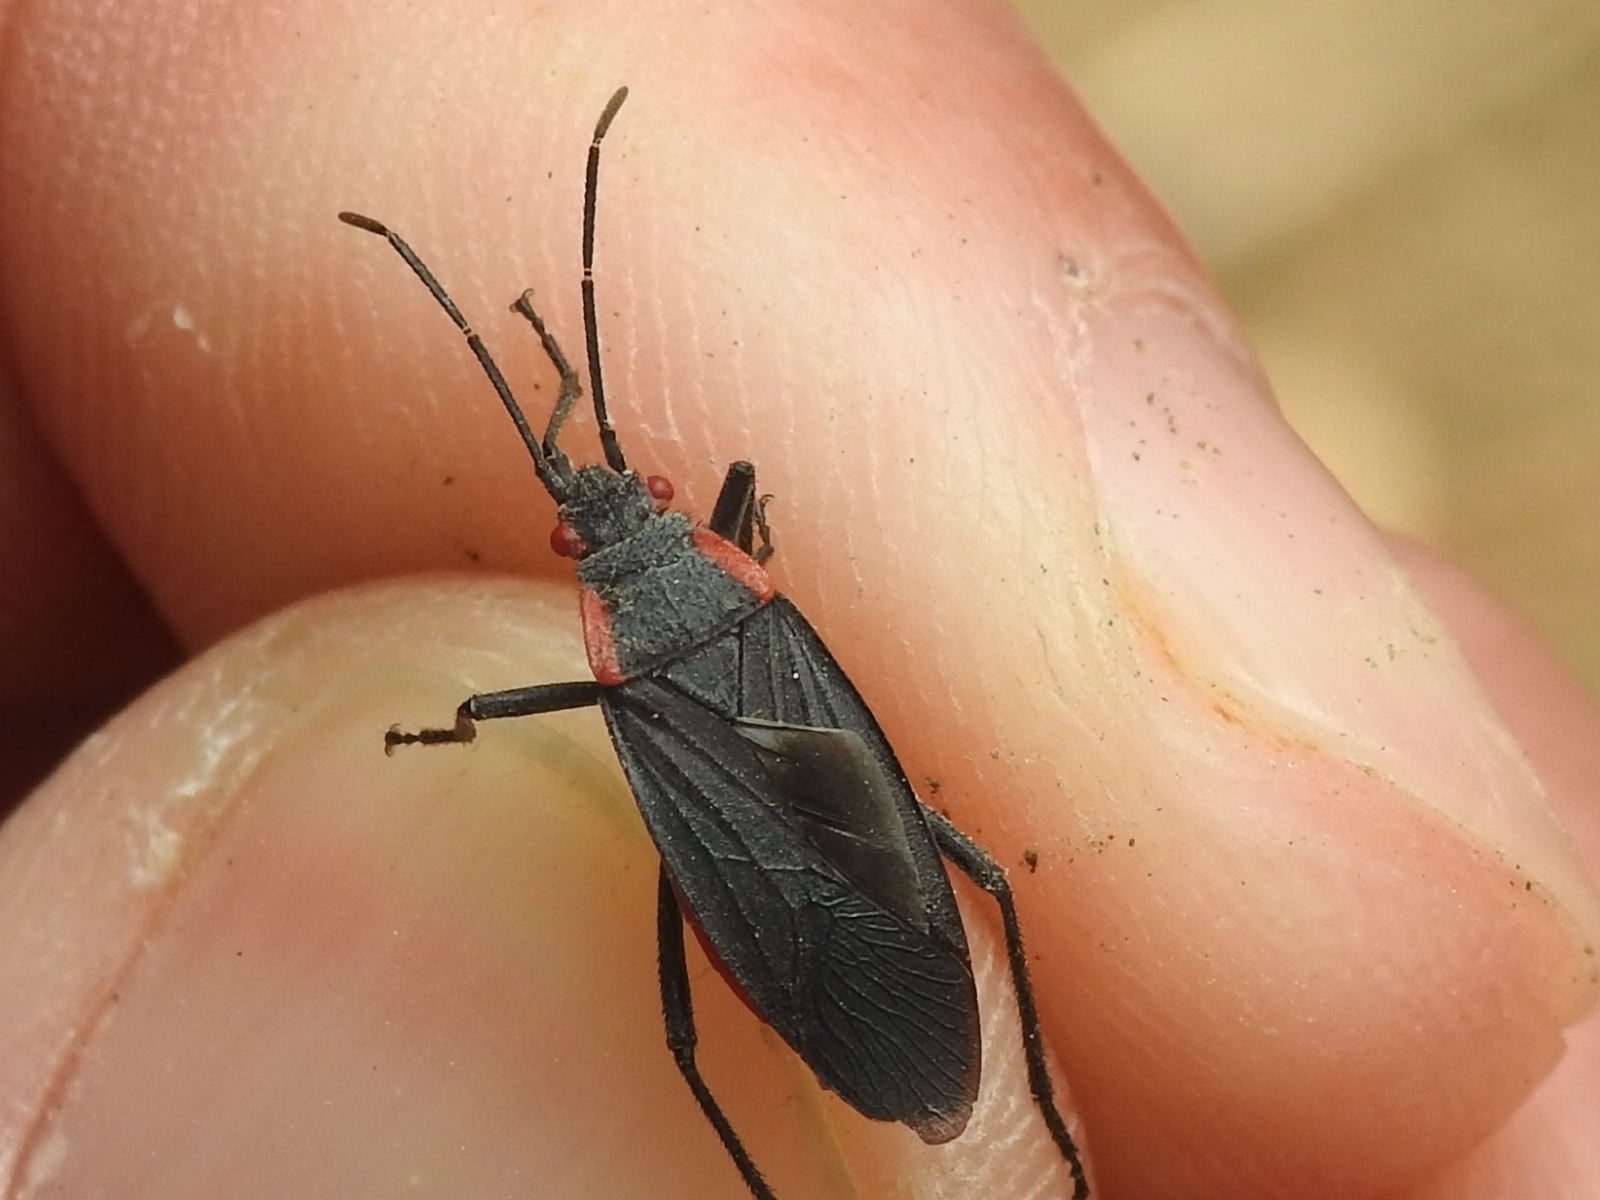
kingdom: Animalia
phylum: Arthropoda
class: Insecta
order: Hemiptera
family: Rhopalidae
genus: Jadera
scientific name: Jadera haematoloma
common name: Red-shouldered bug
